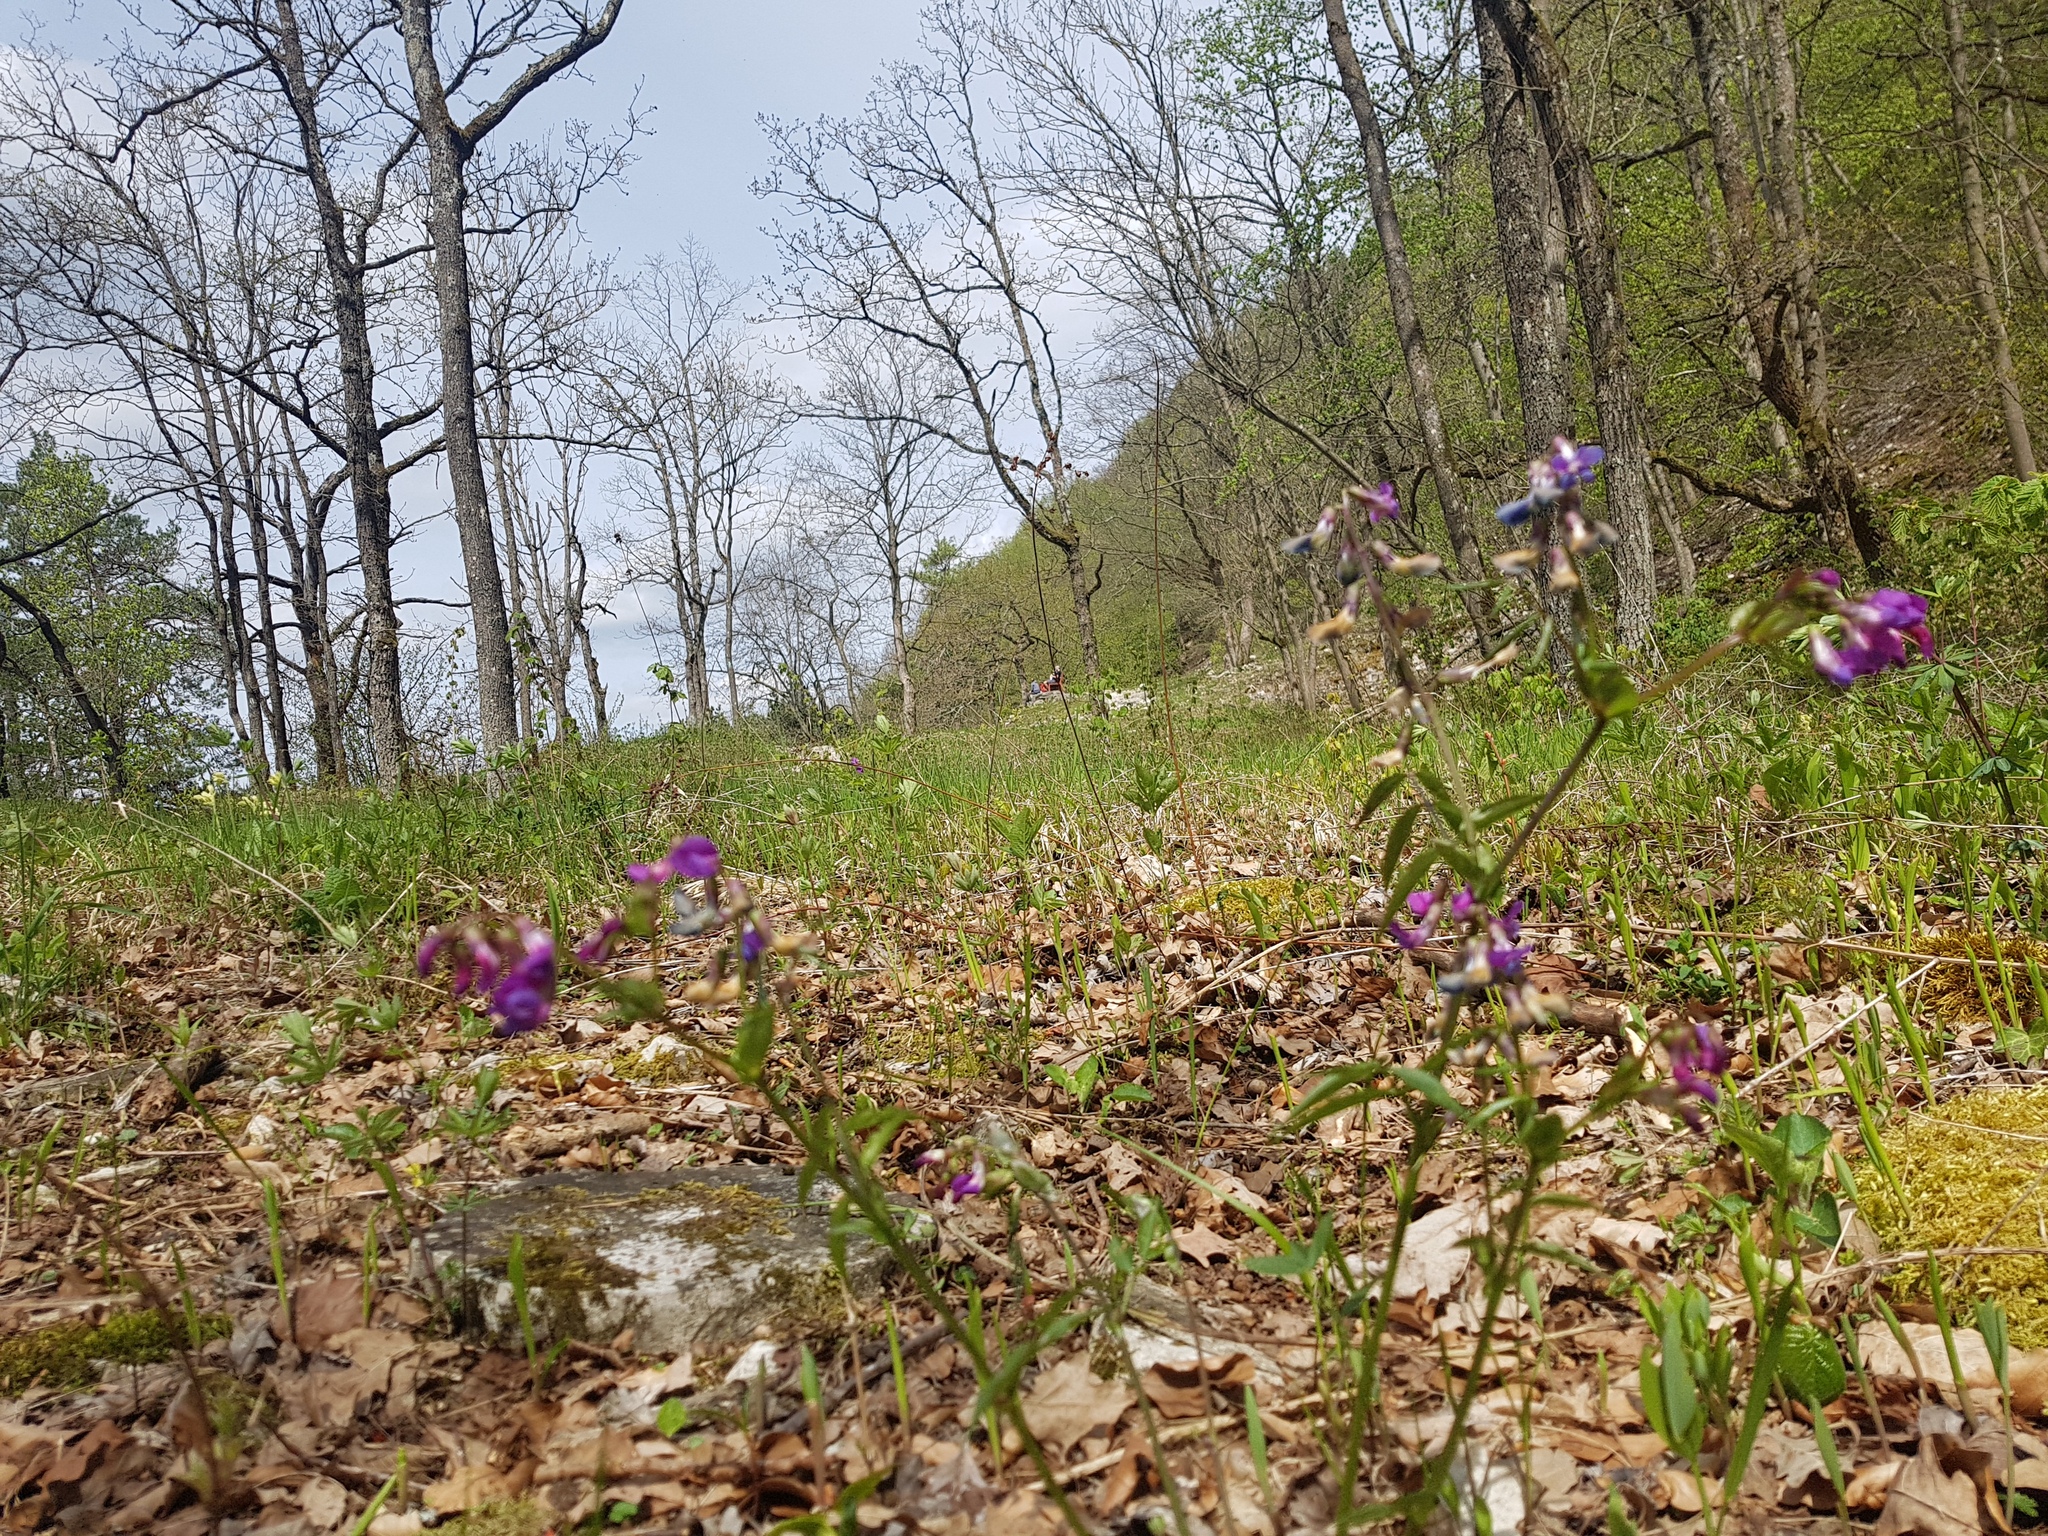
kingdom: Plantae
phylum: Tracheophyta
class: Magnoliopsida
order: Fabales
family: Fabaceae
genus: Lathyrus
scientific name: Lathyrus vernus
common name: Spring pea
